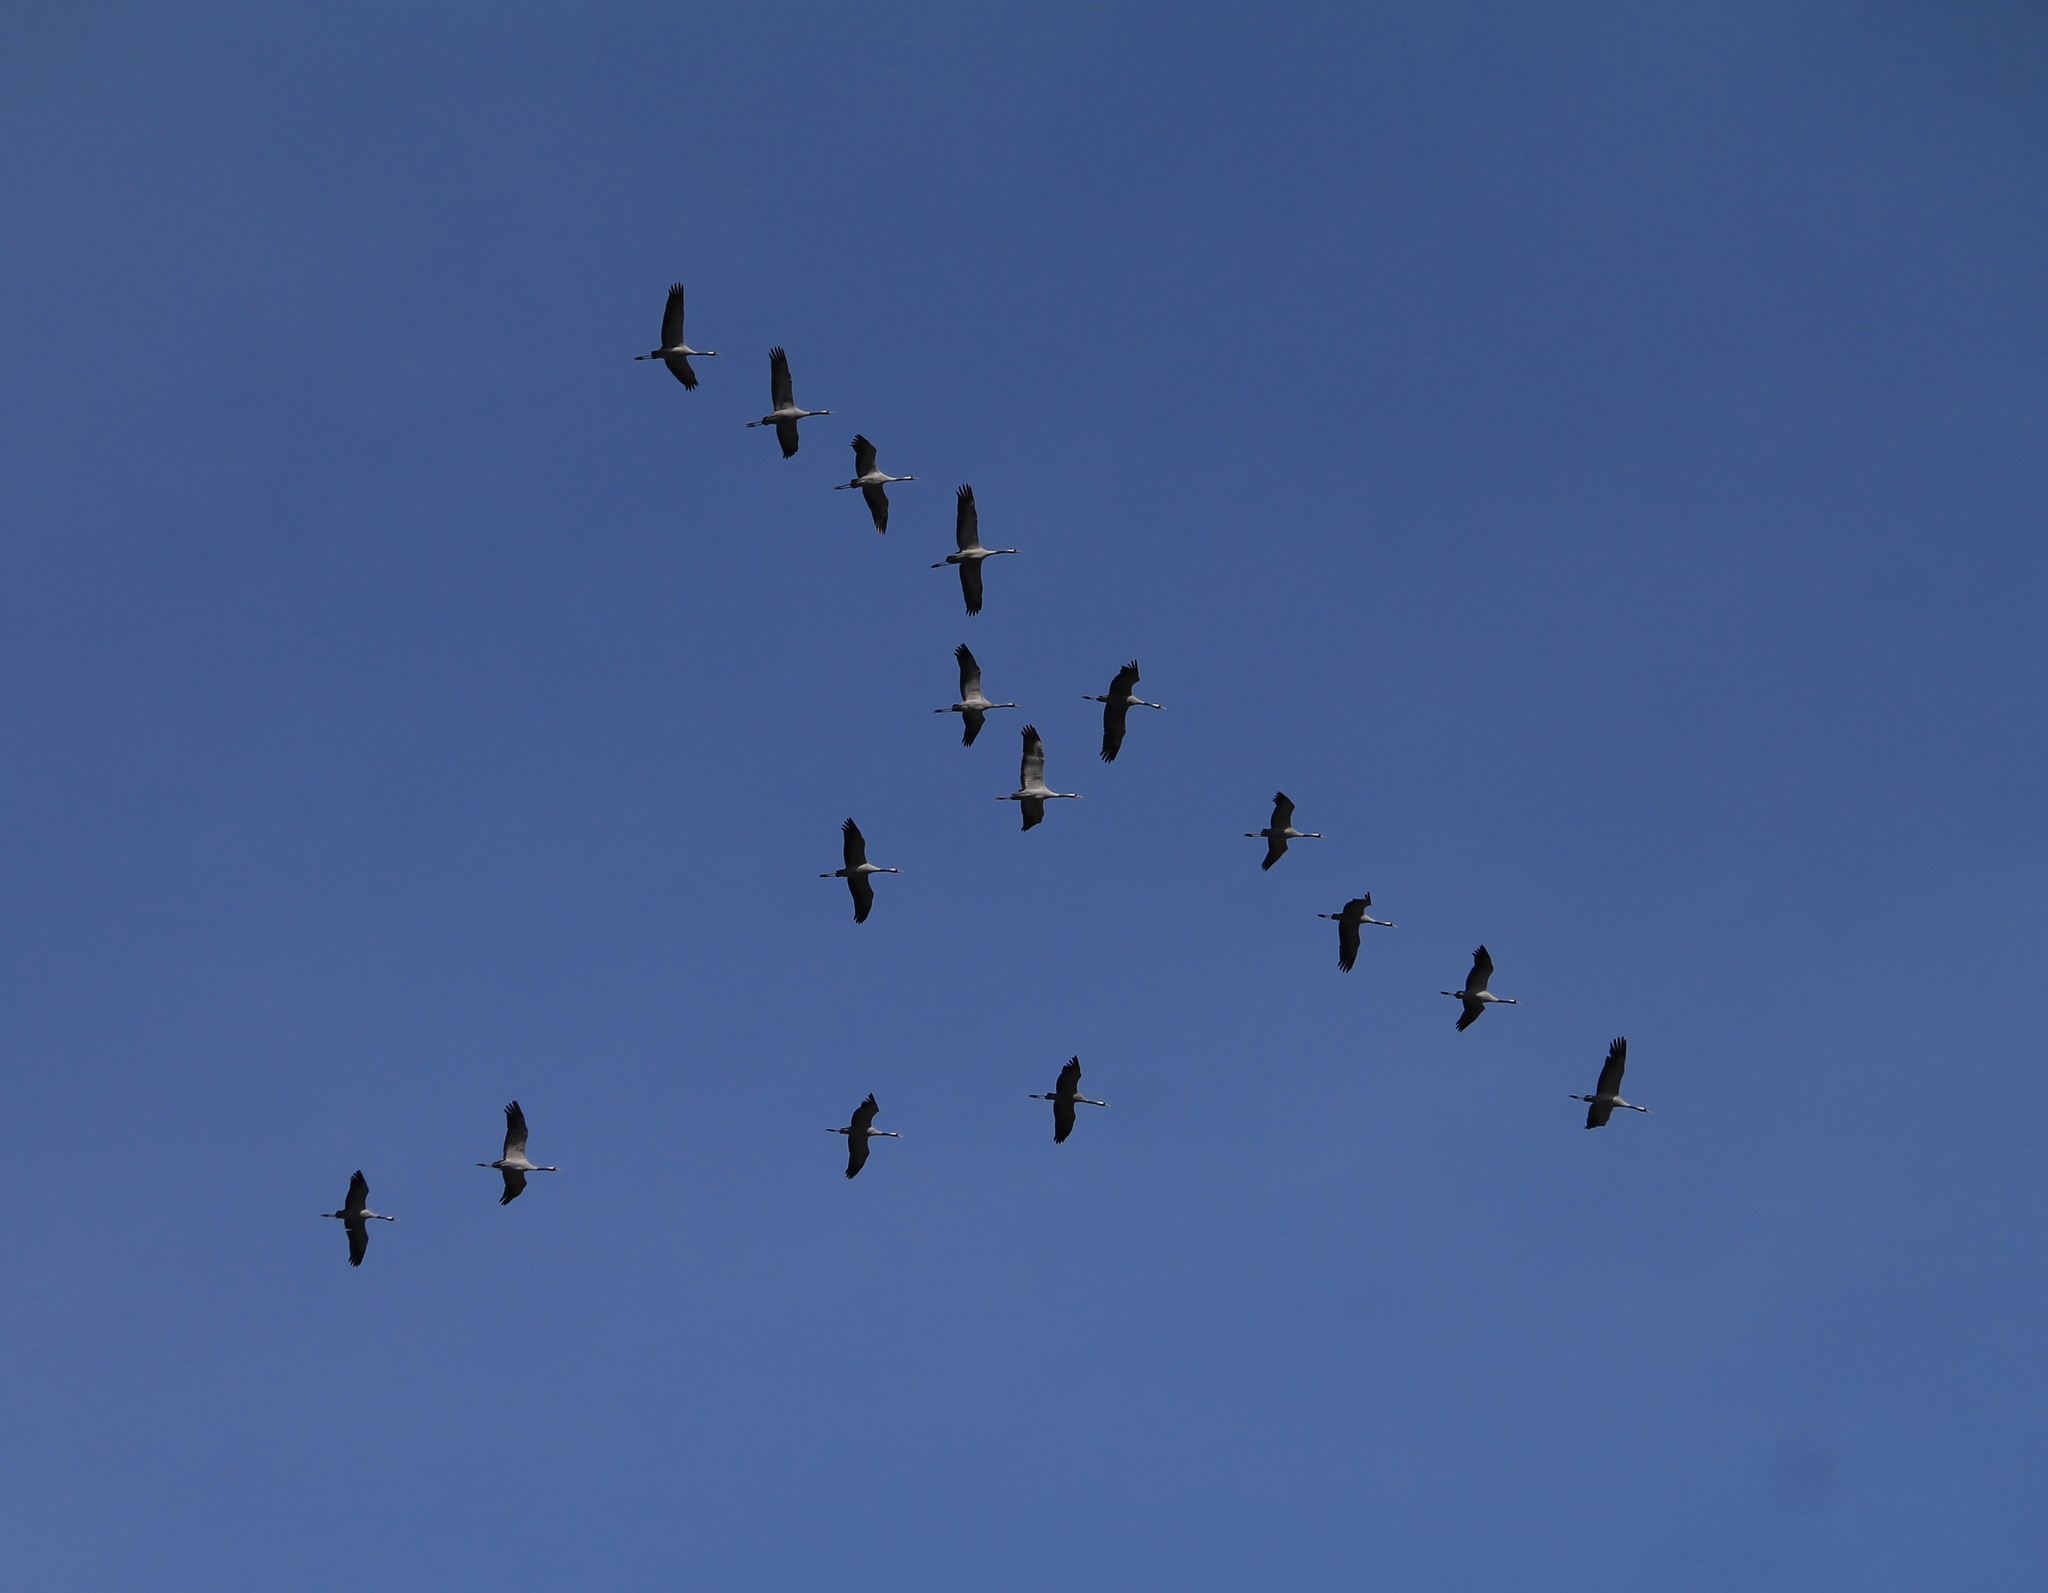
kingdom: Animalia
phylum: Chordata
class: Aves
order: Gruiformes
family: Gruidae
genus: Grus
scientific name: Grus grus
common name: Common crane
